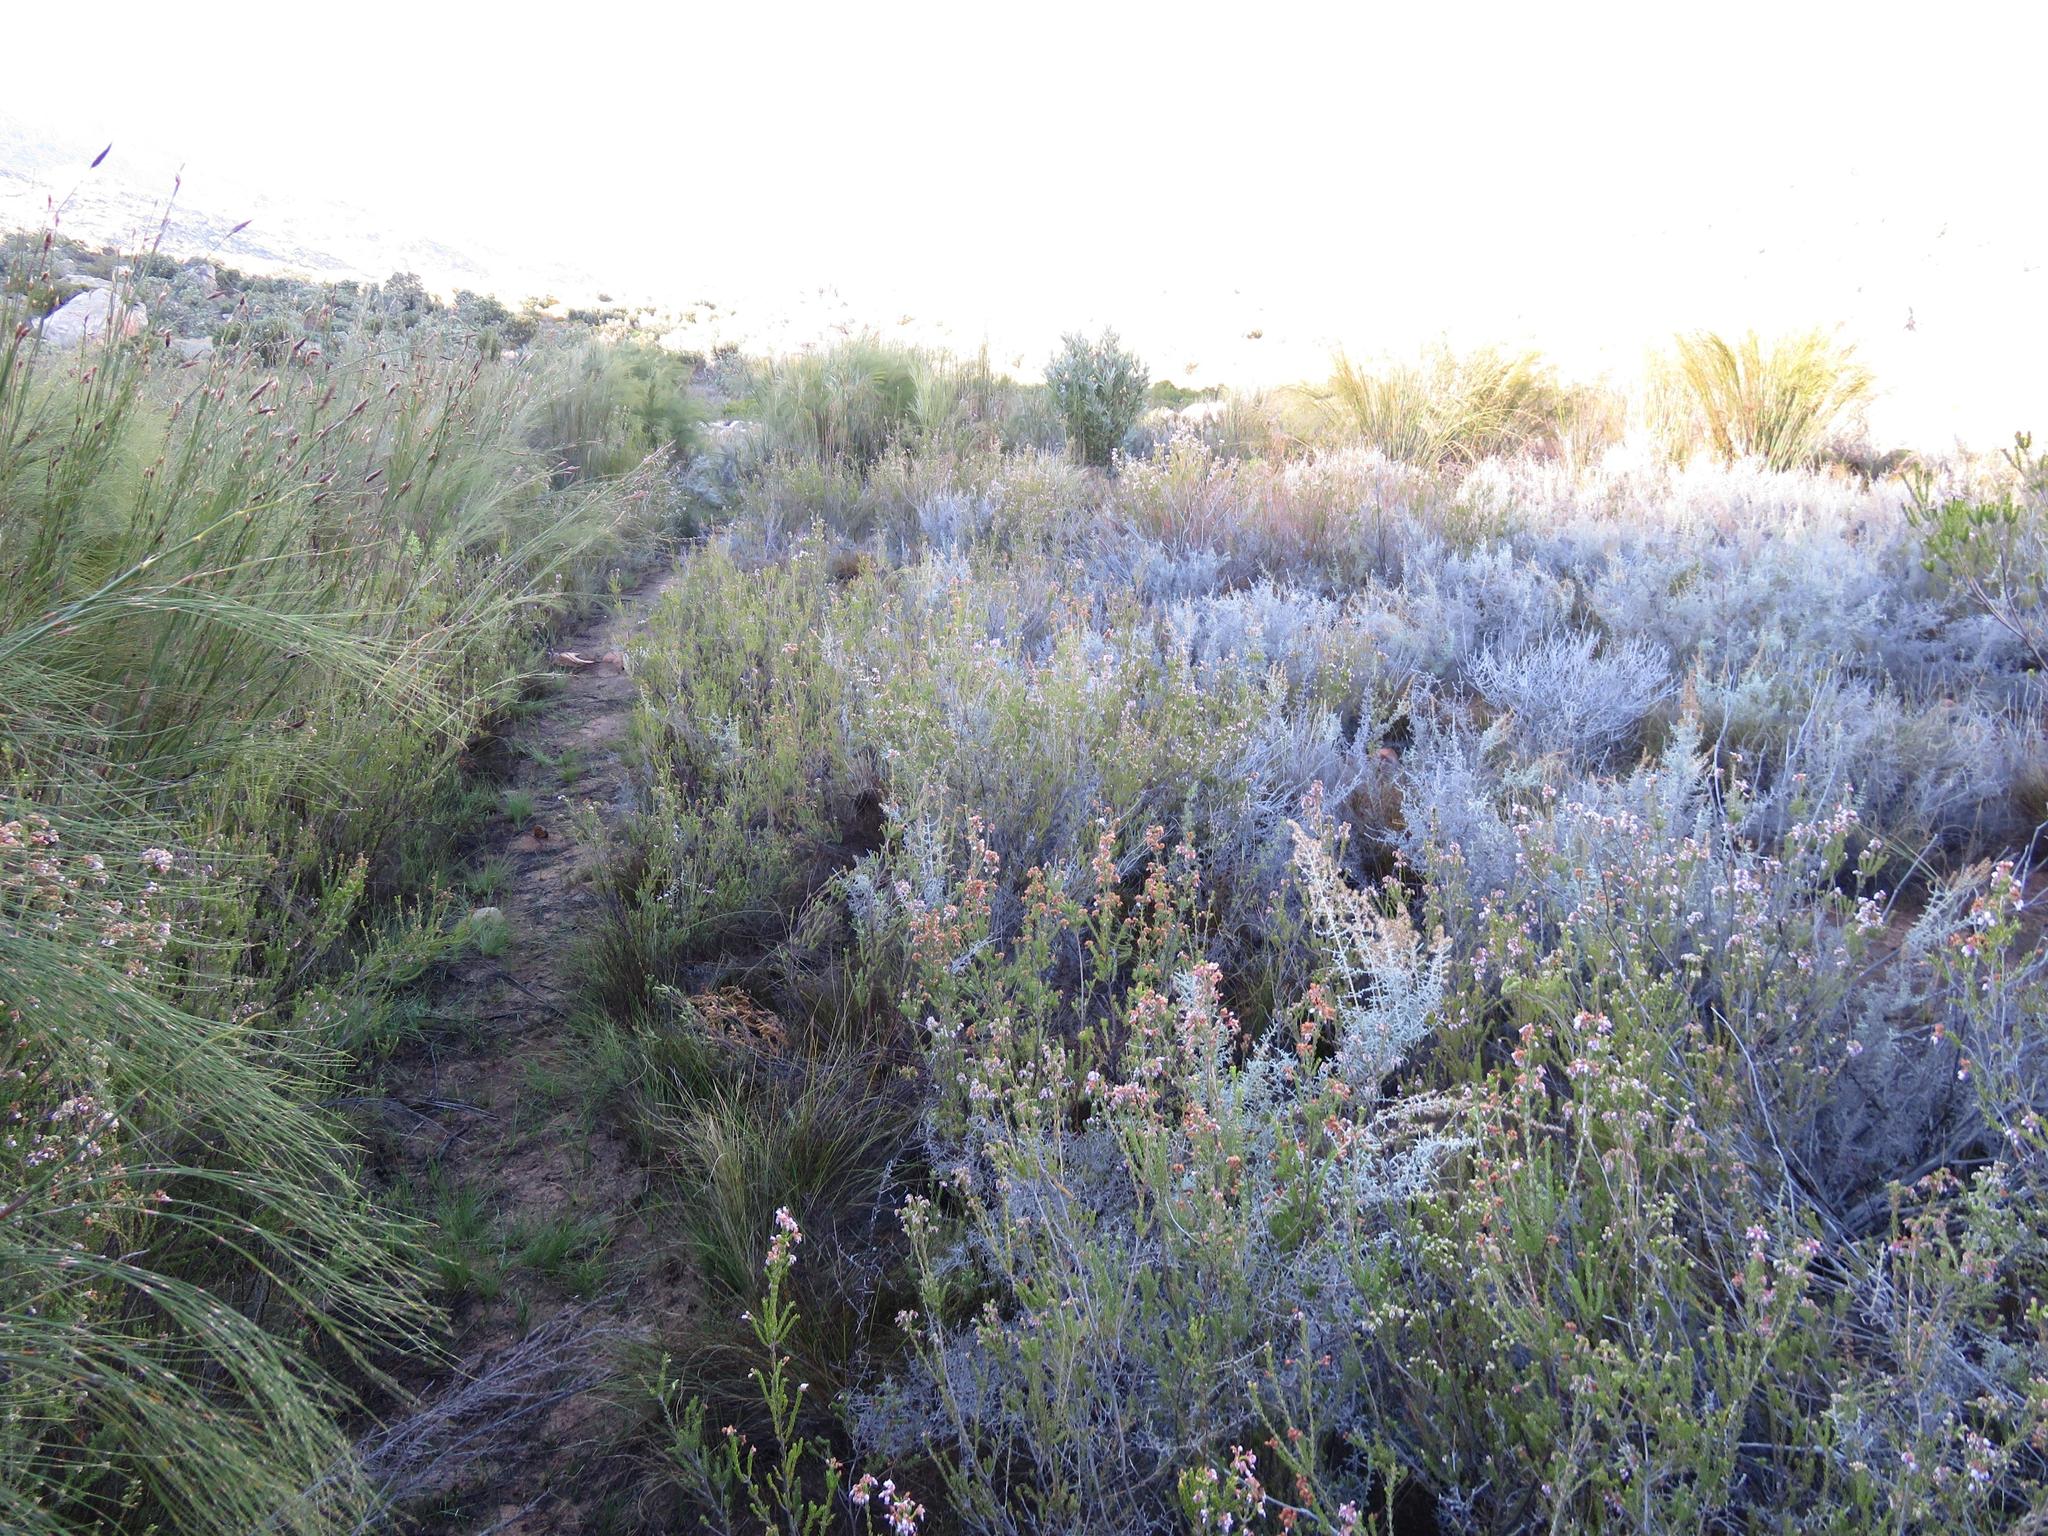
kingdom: Plantae
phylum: Tracheophyta
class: Magnoliopsida
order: Ericales
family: Ericaceae
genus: Erica
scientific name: Erica verecunda
